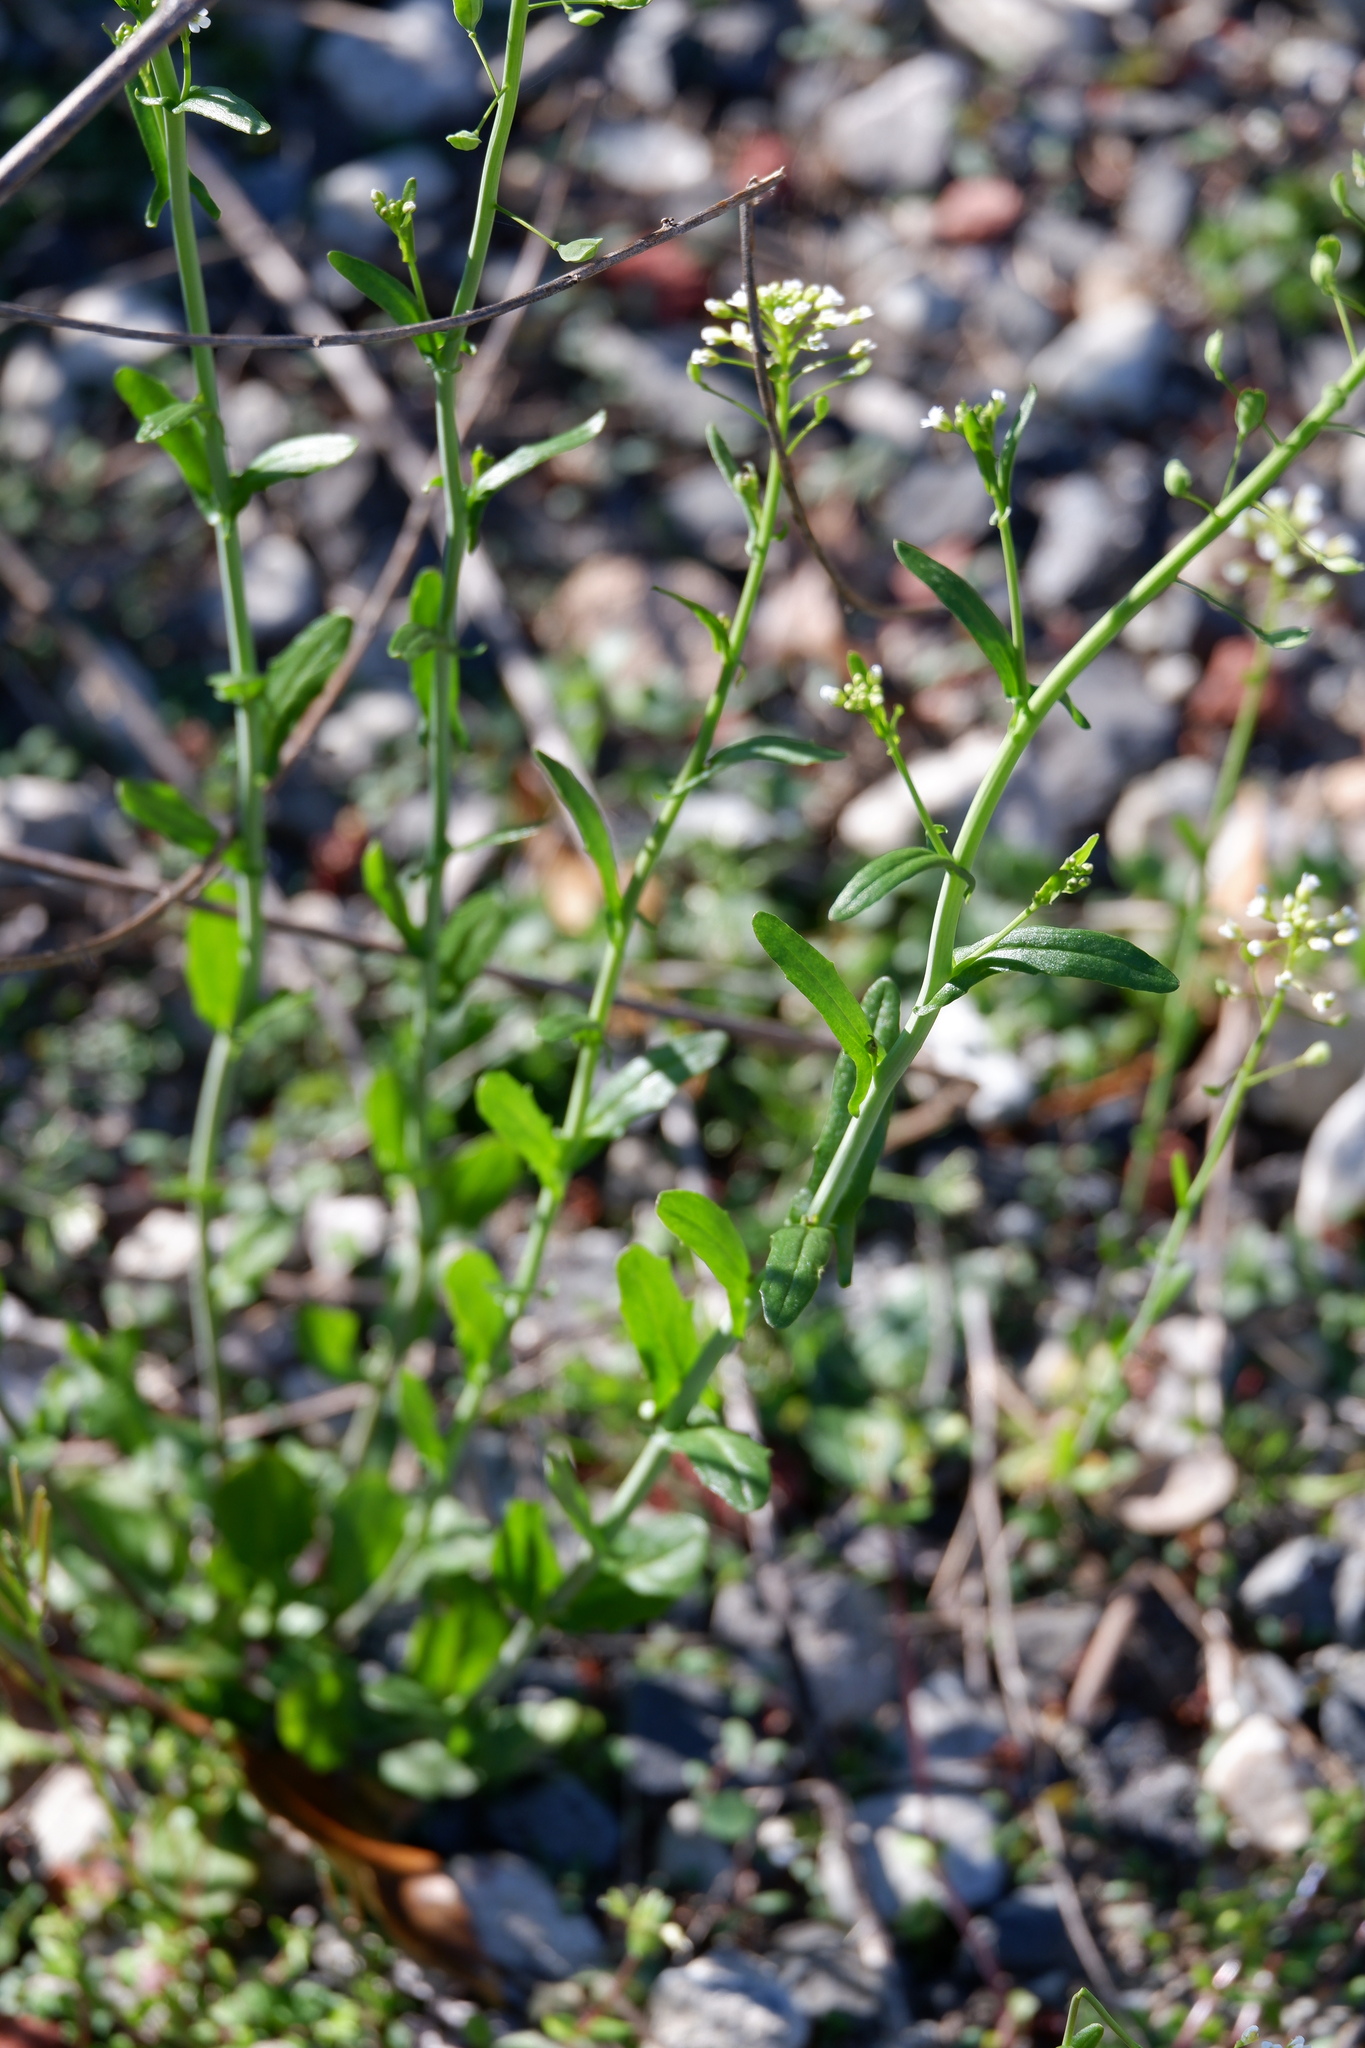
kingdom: Plantae
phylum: Tracheophyta
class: Magnoliopsida
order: Brassicales
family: Brassicaceae
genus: Mummenhoffia
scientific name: Mummenhoffia alliacea
